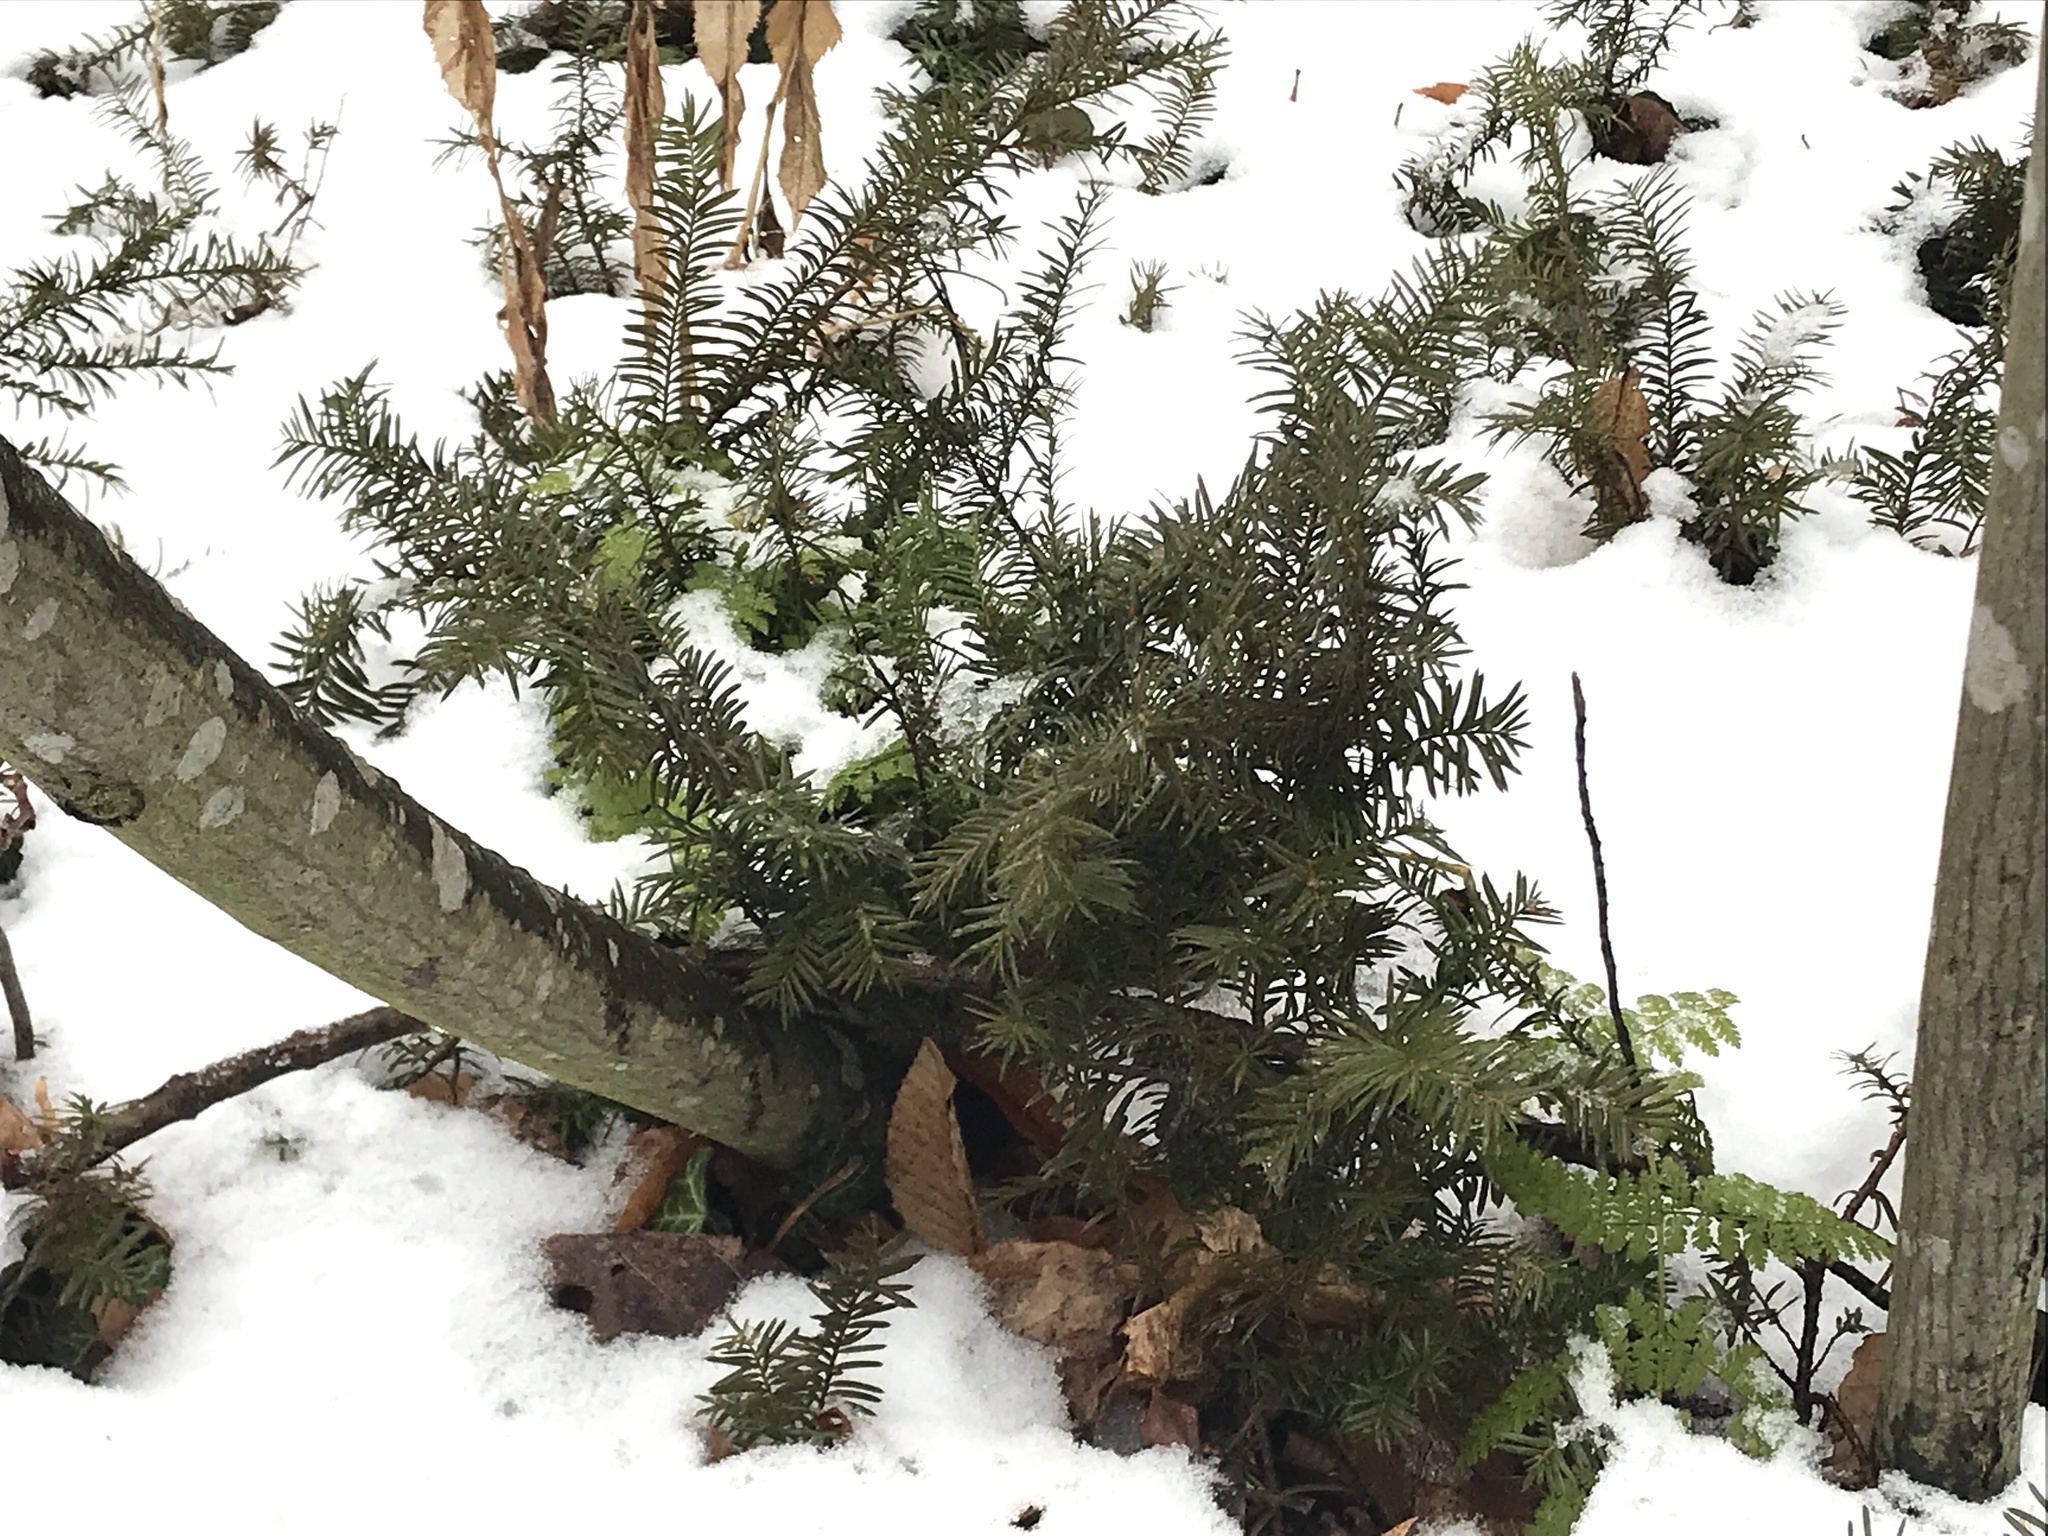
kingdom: Plantae
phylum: Tracheophyta
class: Pinopsida
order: Pinales
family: Taxaceae
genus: Taxus
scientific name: Taxus canadensis
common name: American yew
